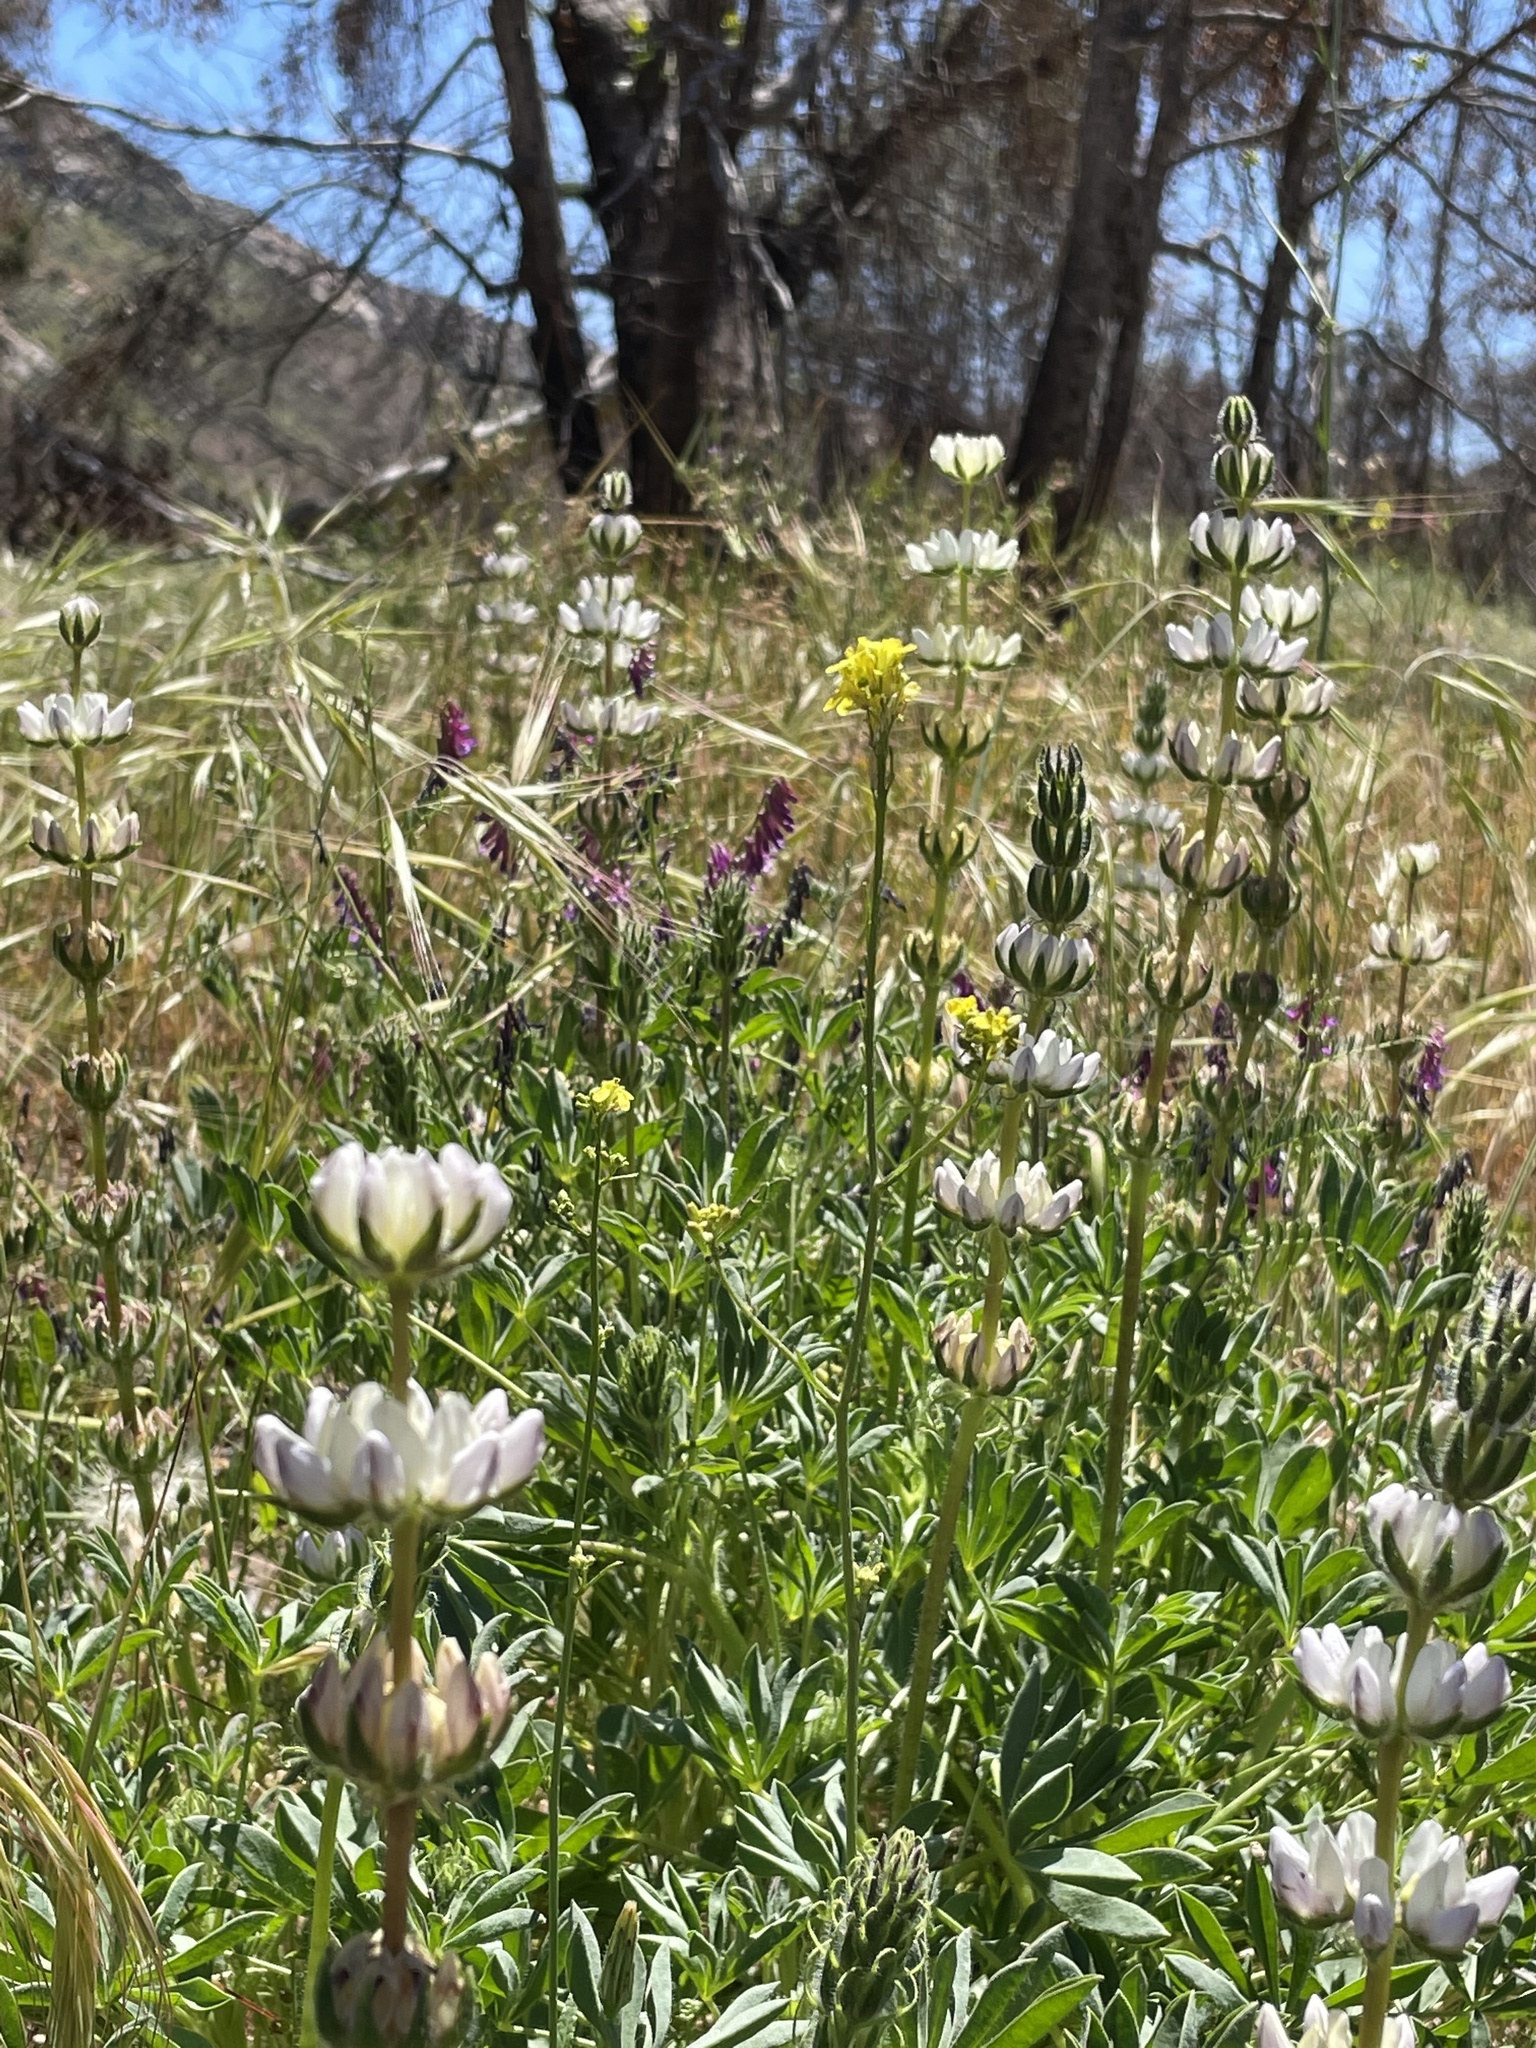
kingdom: Plantae
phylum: Tracheophyta
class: Magnoliopsida
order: Fabales
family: Fabaceae
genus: Lupinus
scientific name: Lupinus microcarpus
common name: Chick lupine
